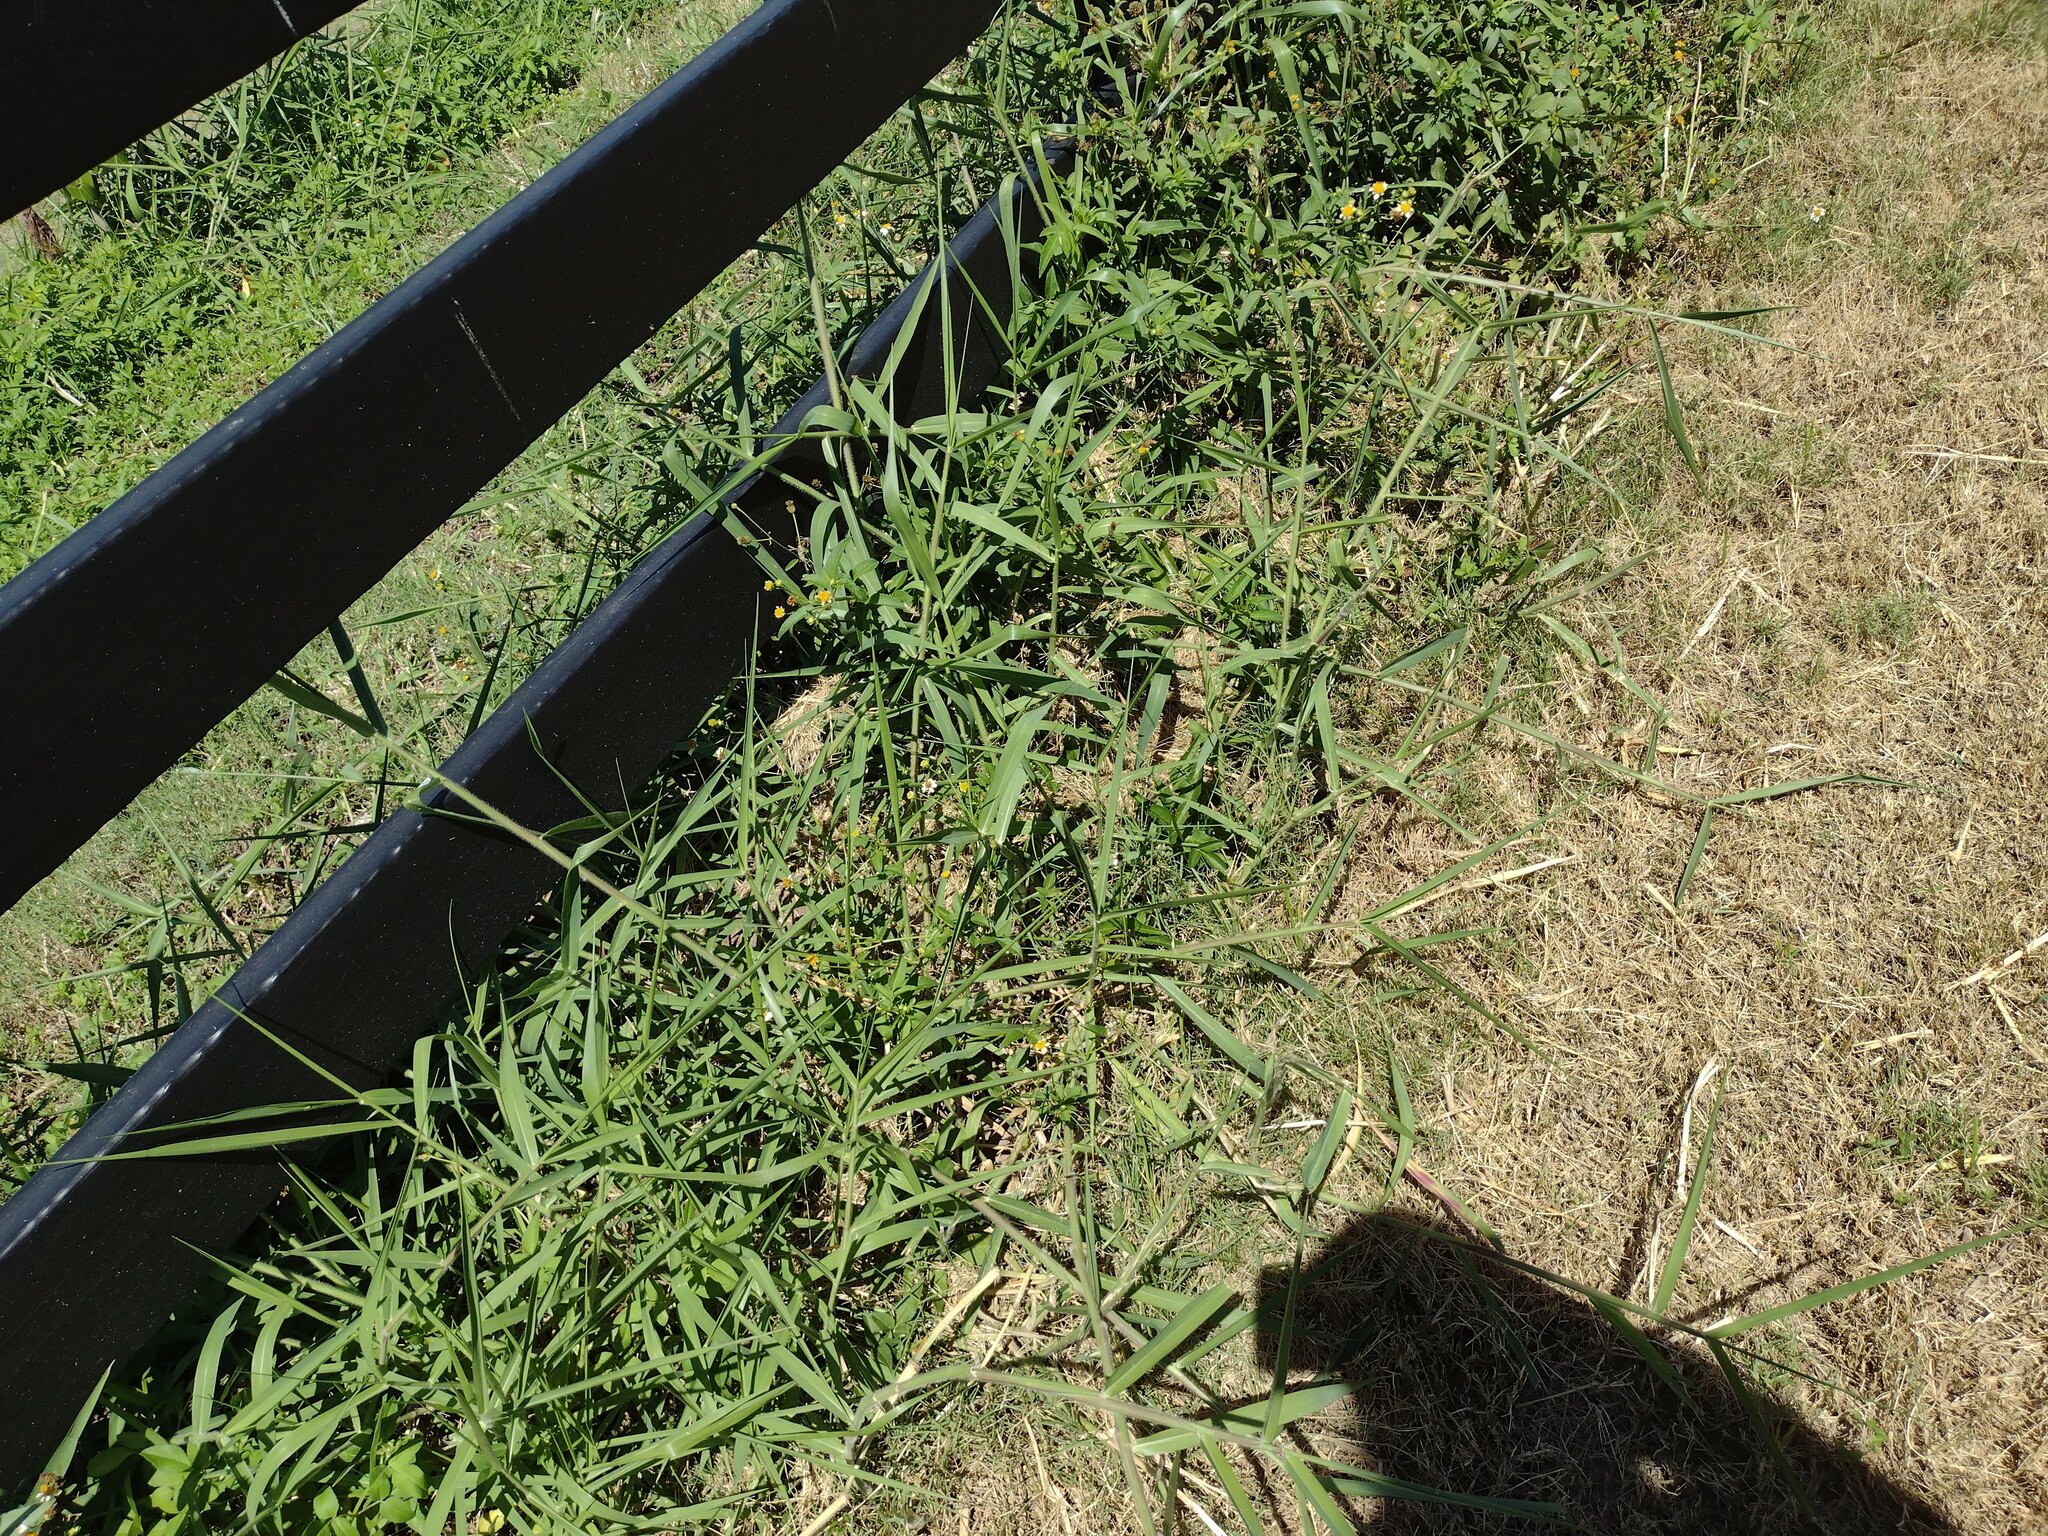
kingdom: Plantae
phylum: Tracheophyta
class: Liliopsida
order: Poales
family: Poaceae
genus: Urochloa
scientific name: Urochloa mutica
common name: Para grass
